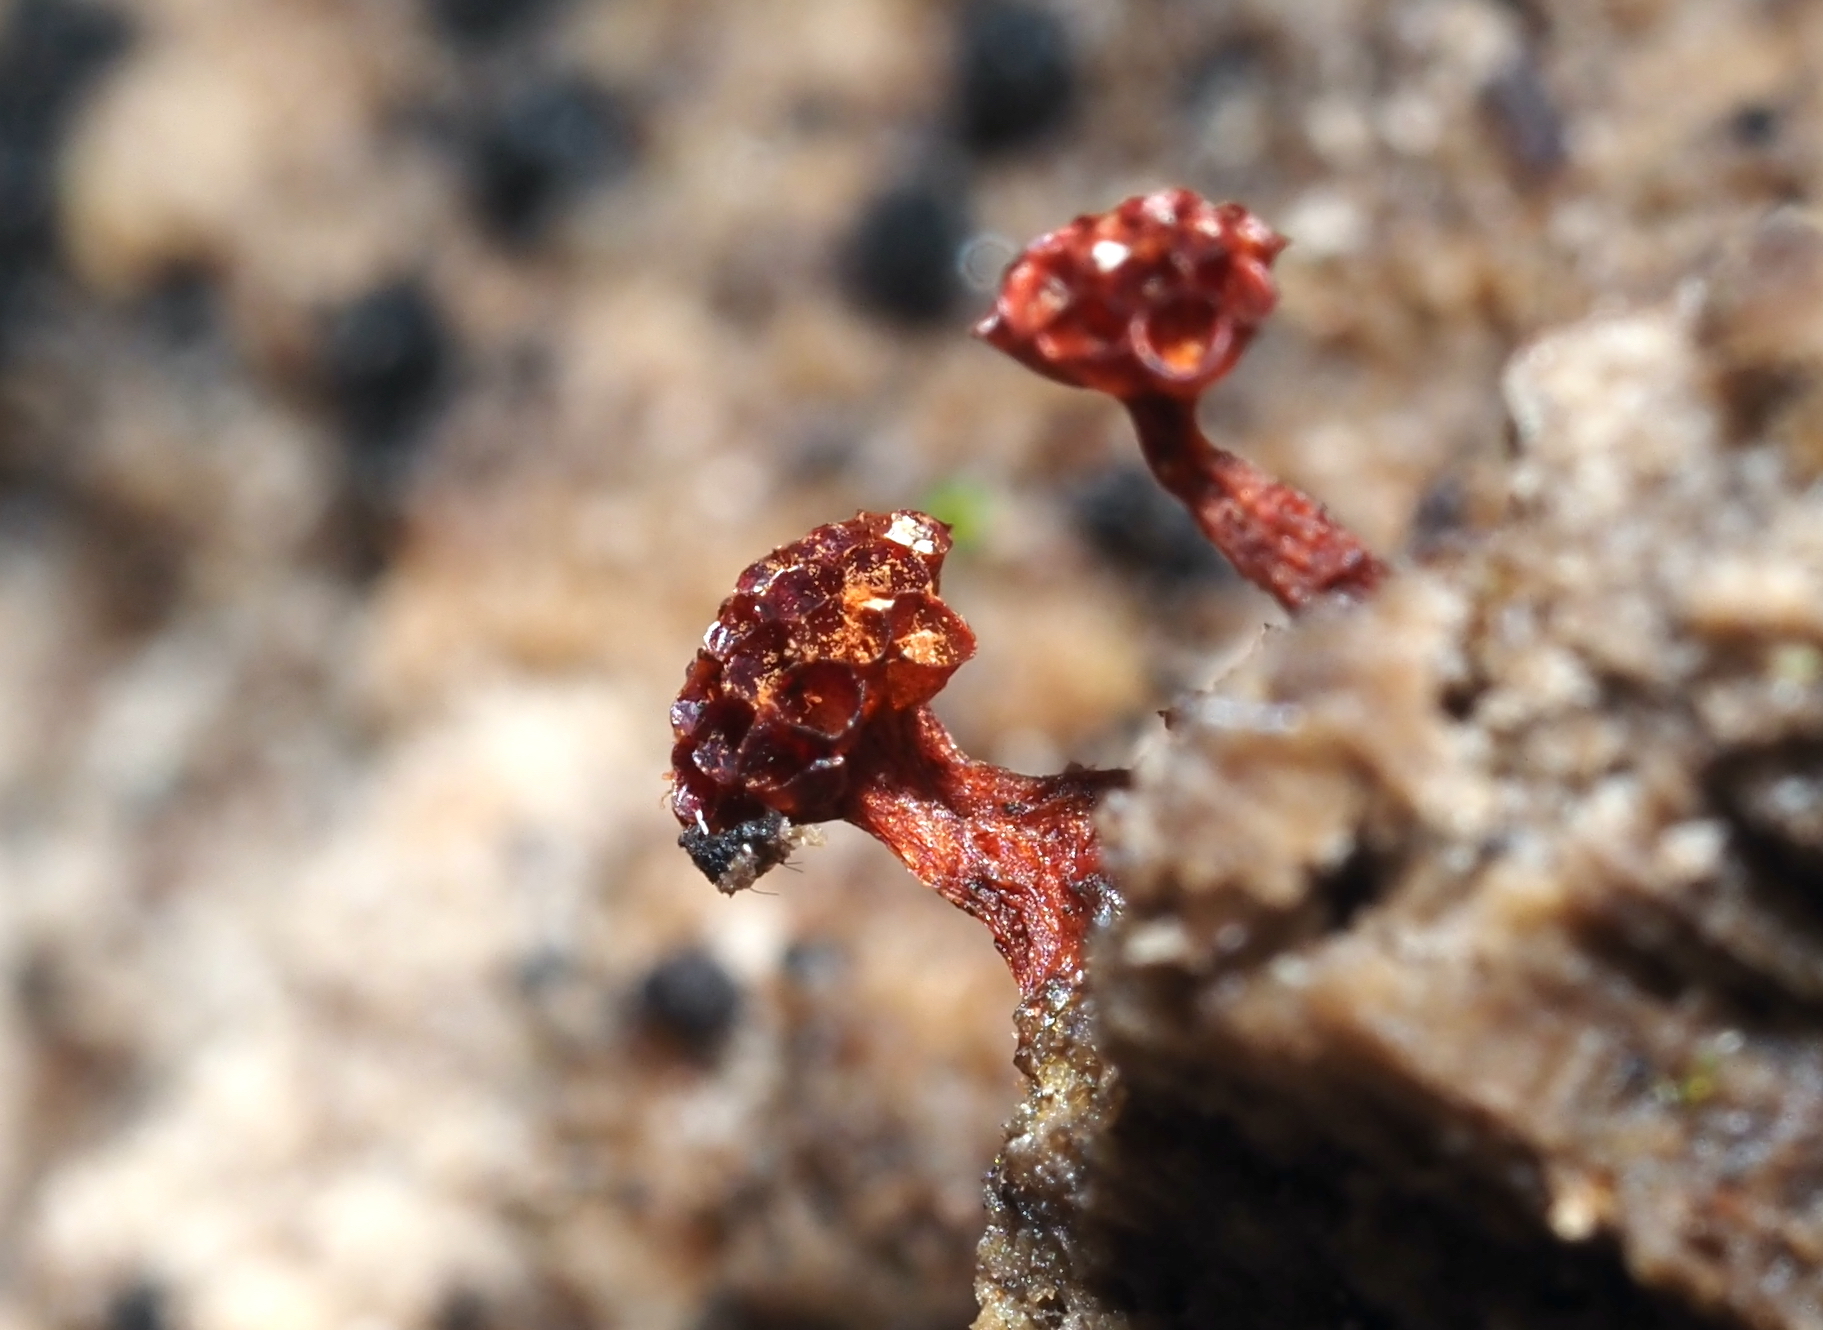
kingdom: Protozoa
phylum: Mycetozoa
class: Myxomycetes
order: Trichiales
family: Trichiaceae
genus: Metatrichia
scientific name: Metatrichia vesparia
